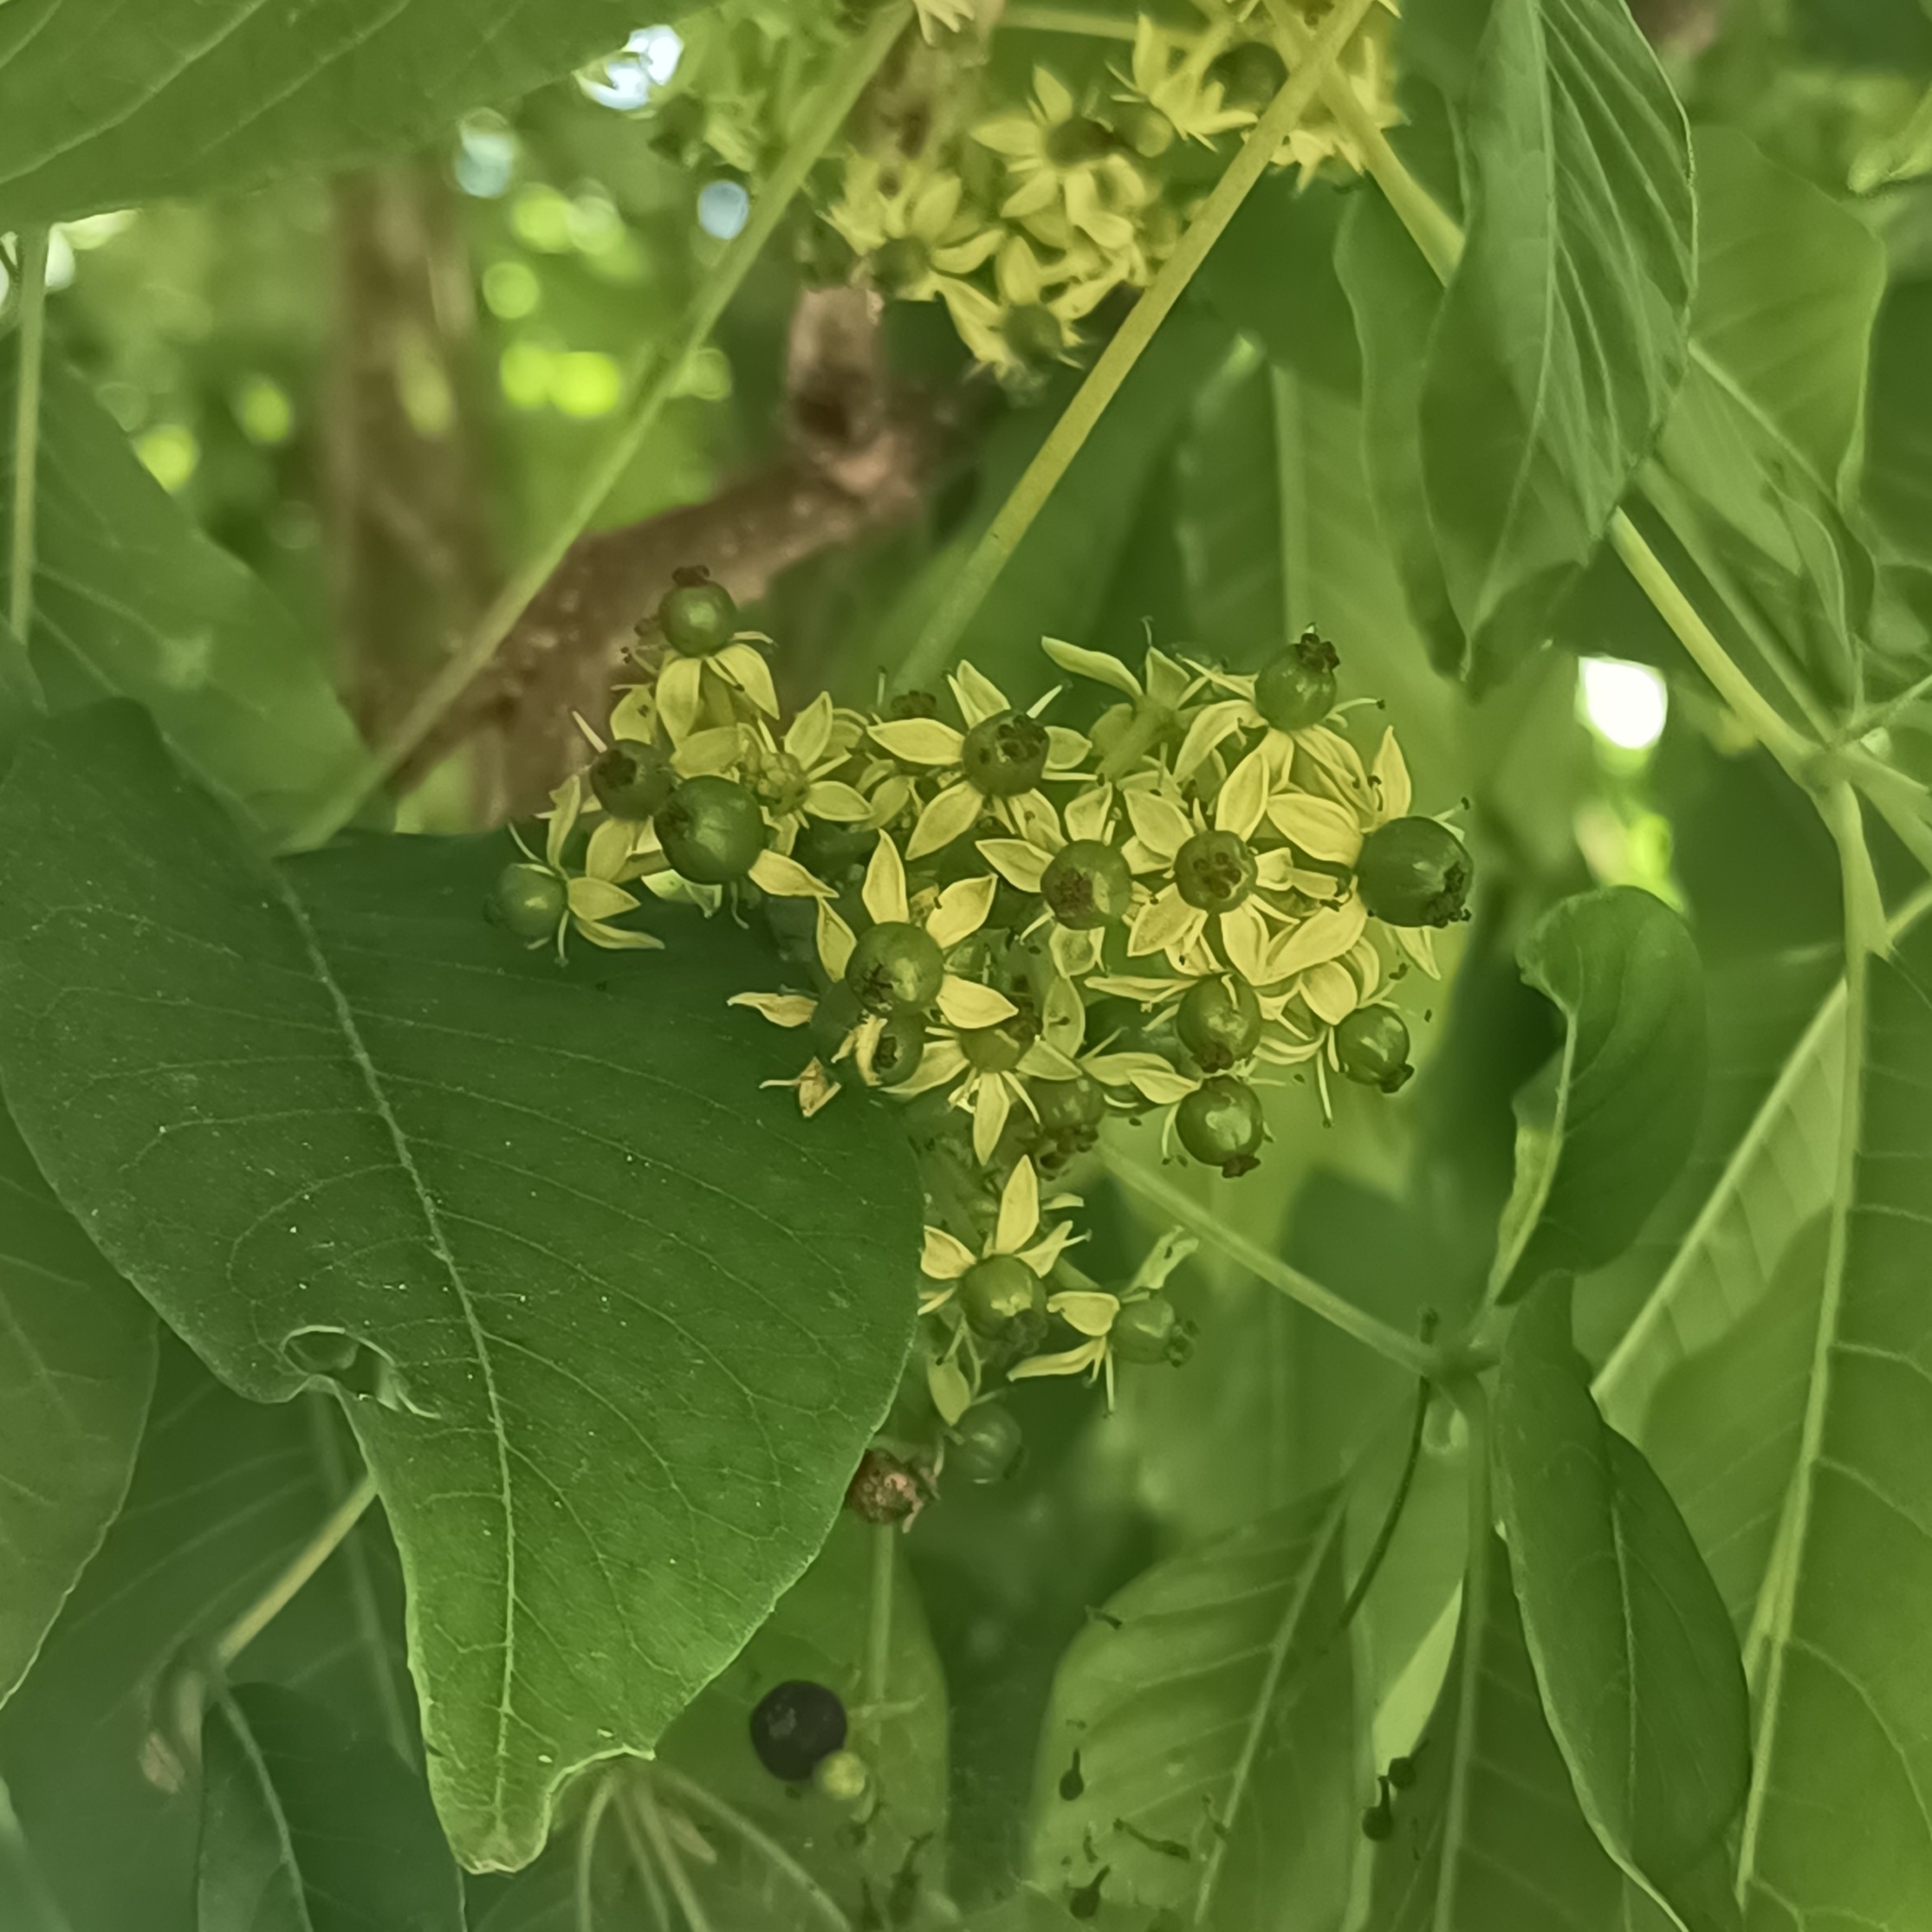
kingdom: Plantae
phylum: Tracheophyta
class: Magnoliopsida
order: Sapindales
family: Rutaceae
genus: Casimiroa
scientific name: Casimiroa edulis
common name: Mexican-apple
